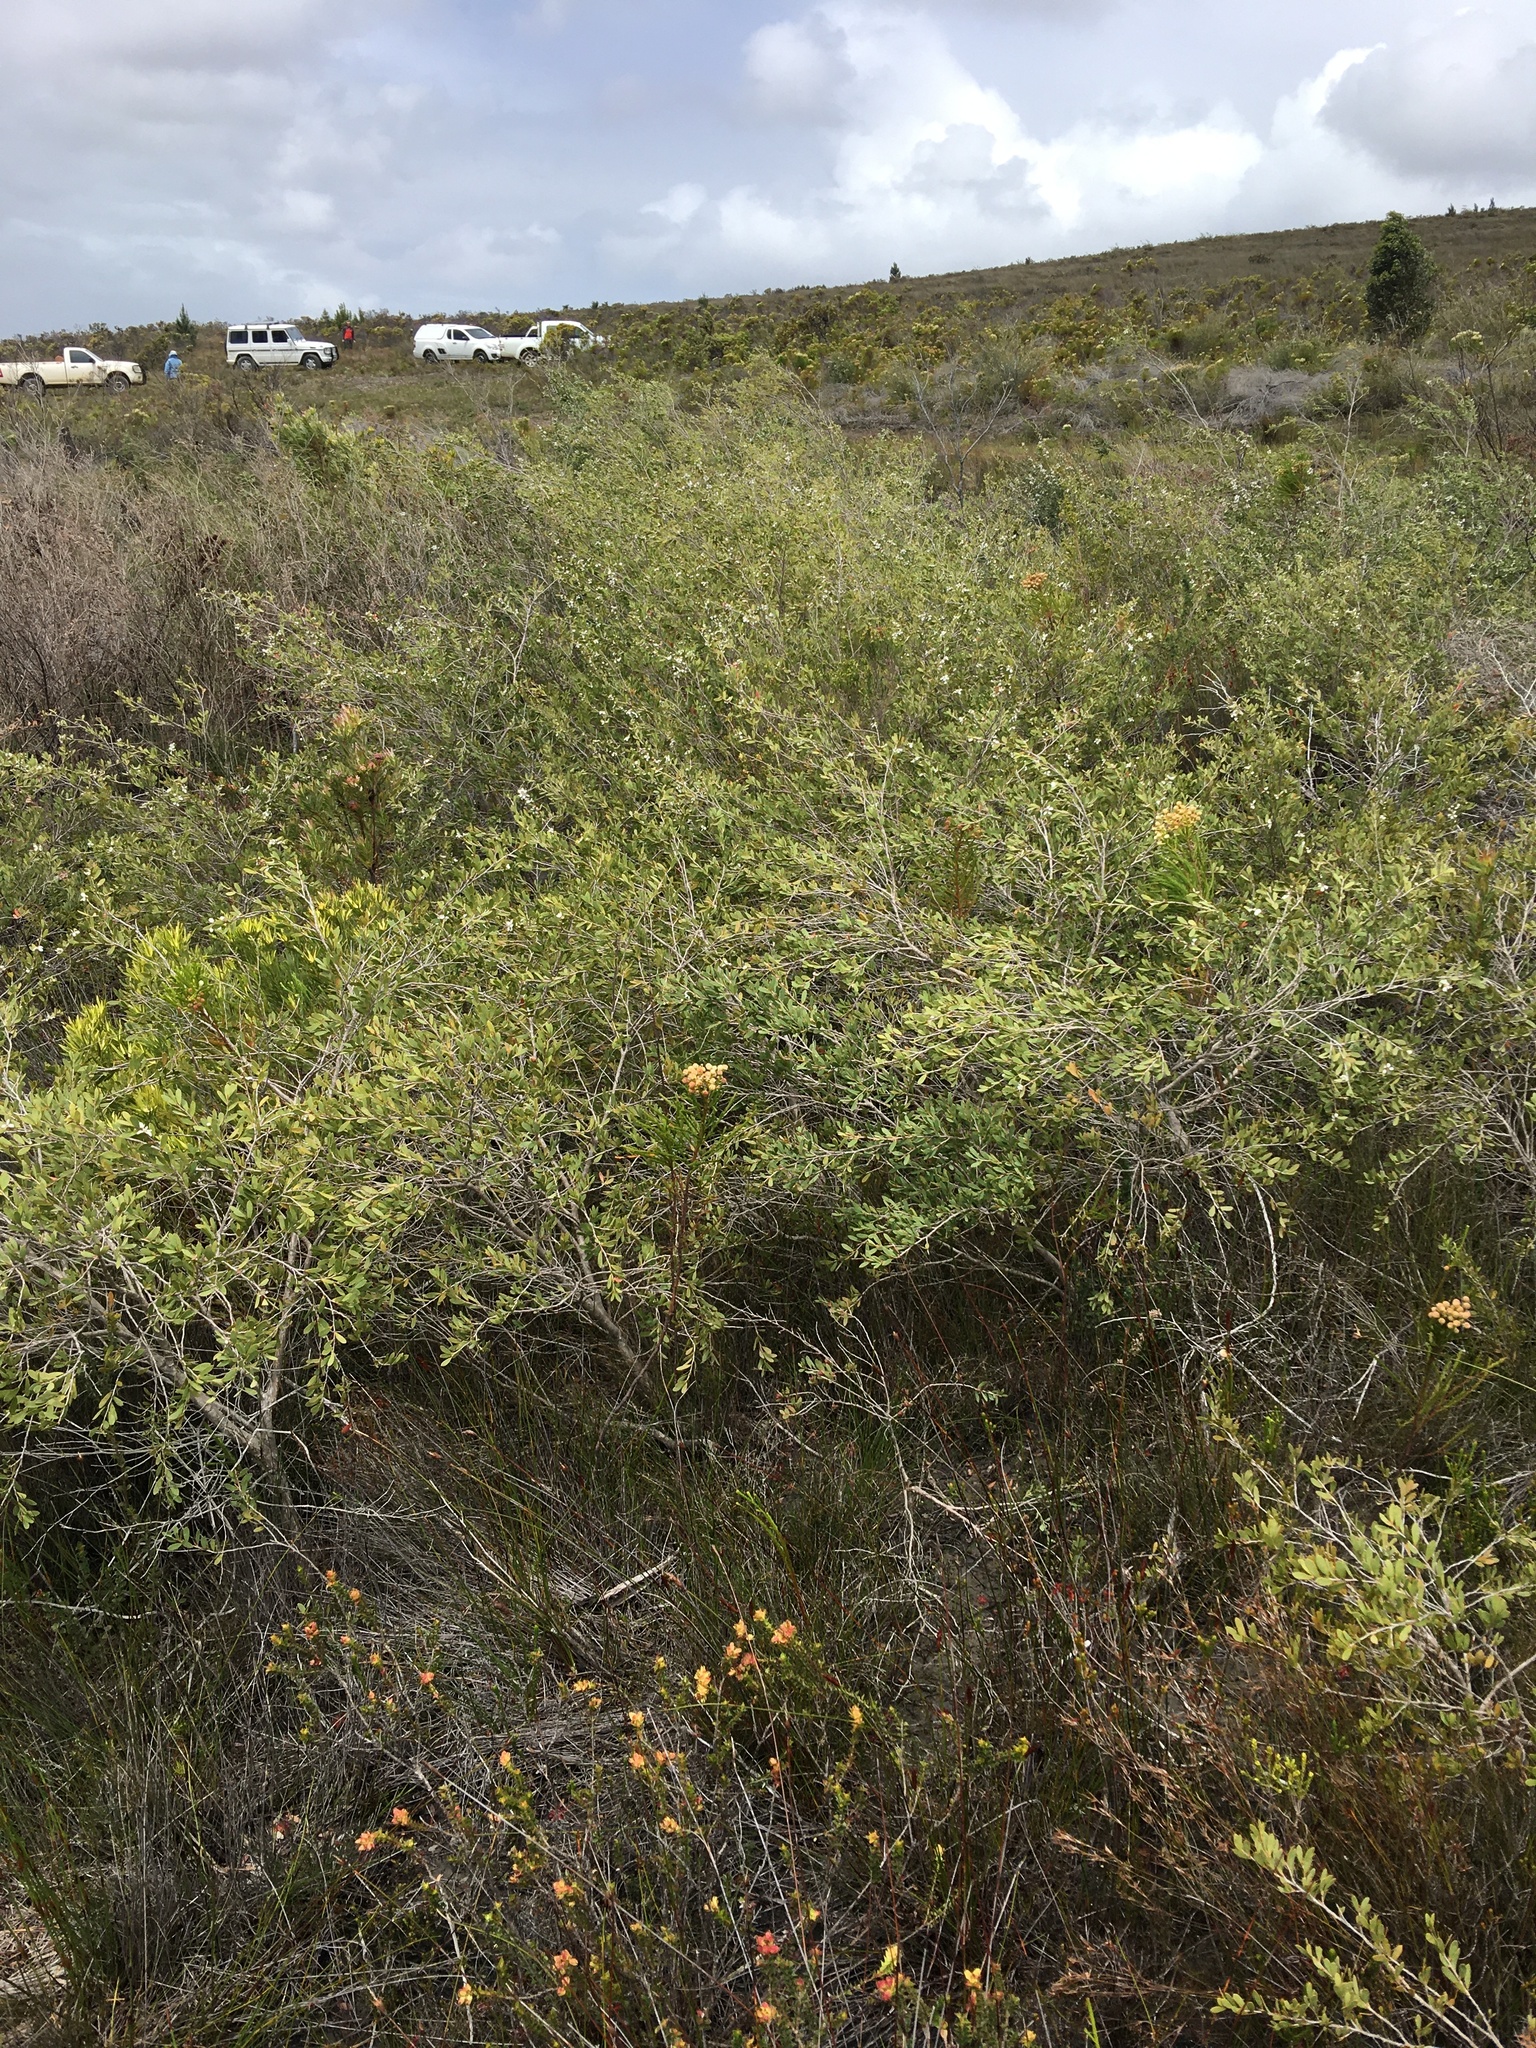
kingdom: Plantae
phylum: Tracheophyta
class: Magnoliopsida
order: Myrtales
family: Myrtaceae
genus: Leptospermum
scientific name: Leptospermum laevigatum
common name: Australian teatree
